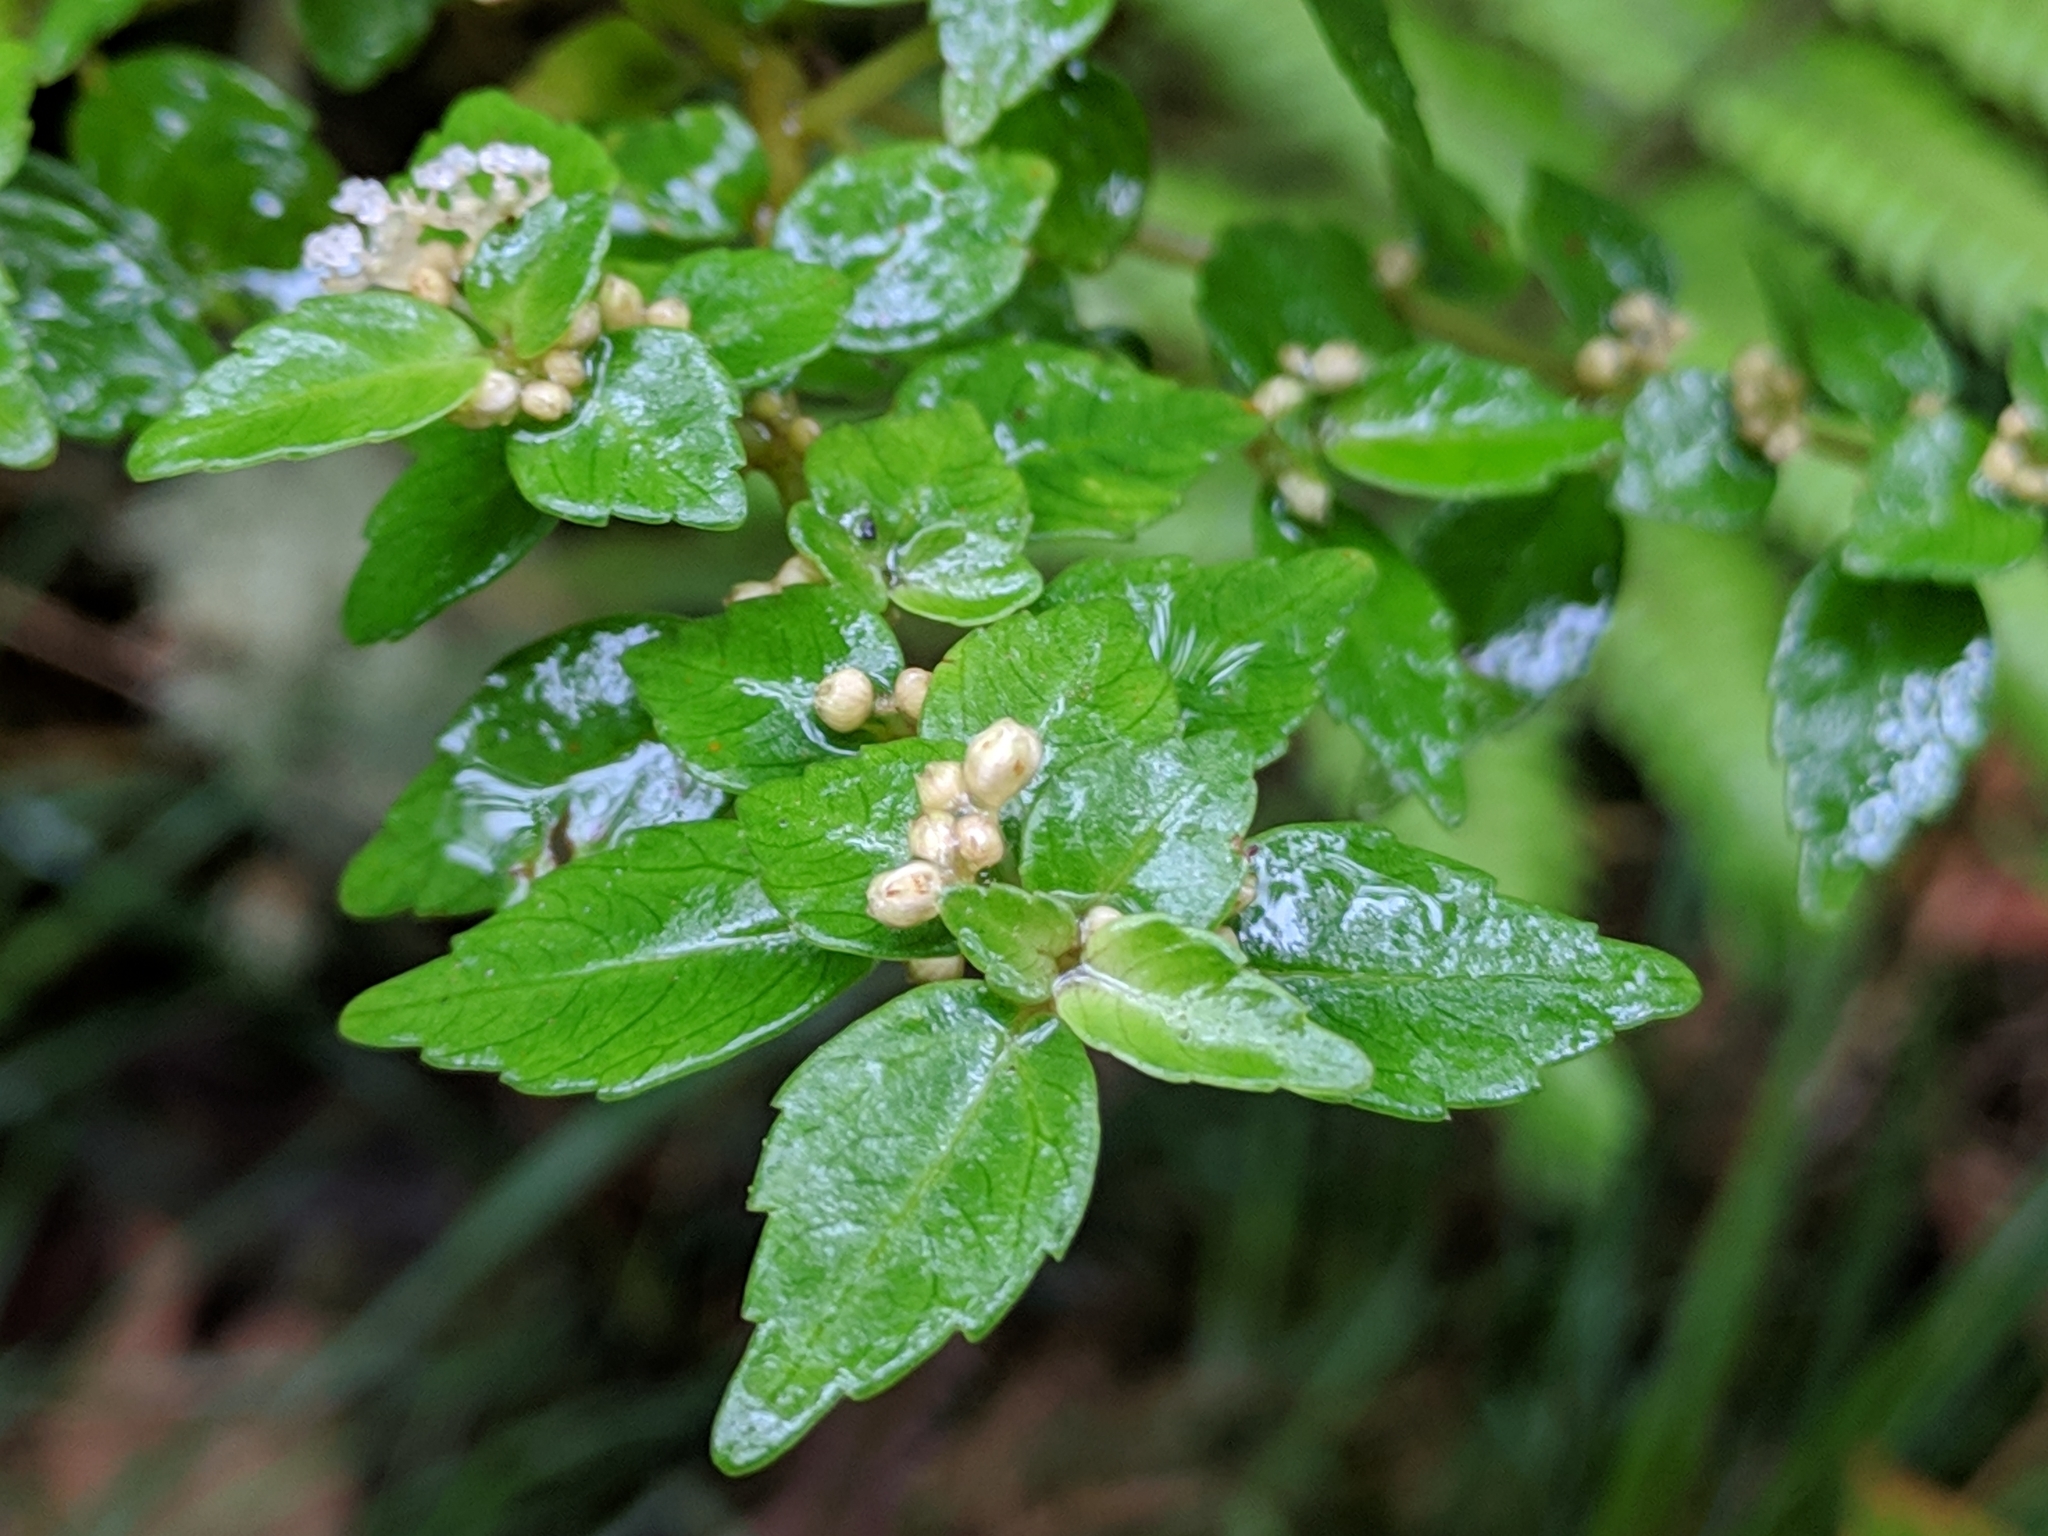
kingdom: Plantae
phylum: Tracheophyta
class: Magnoliopsida
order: Rosales
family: Urticaceae
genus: Pilea
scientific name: Pilea urticifolia
